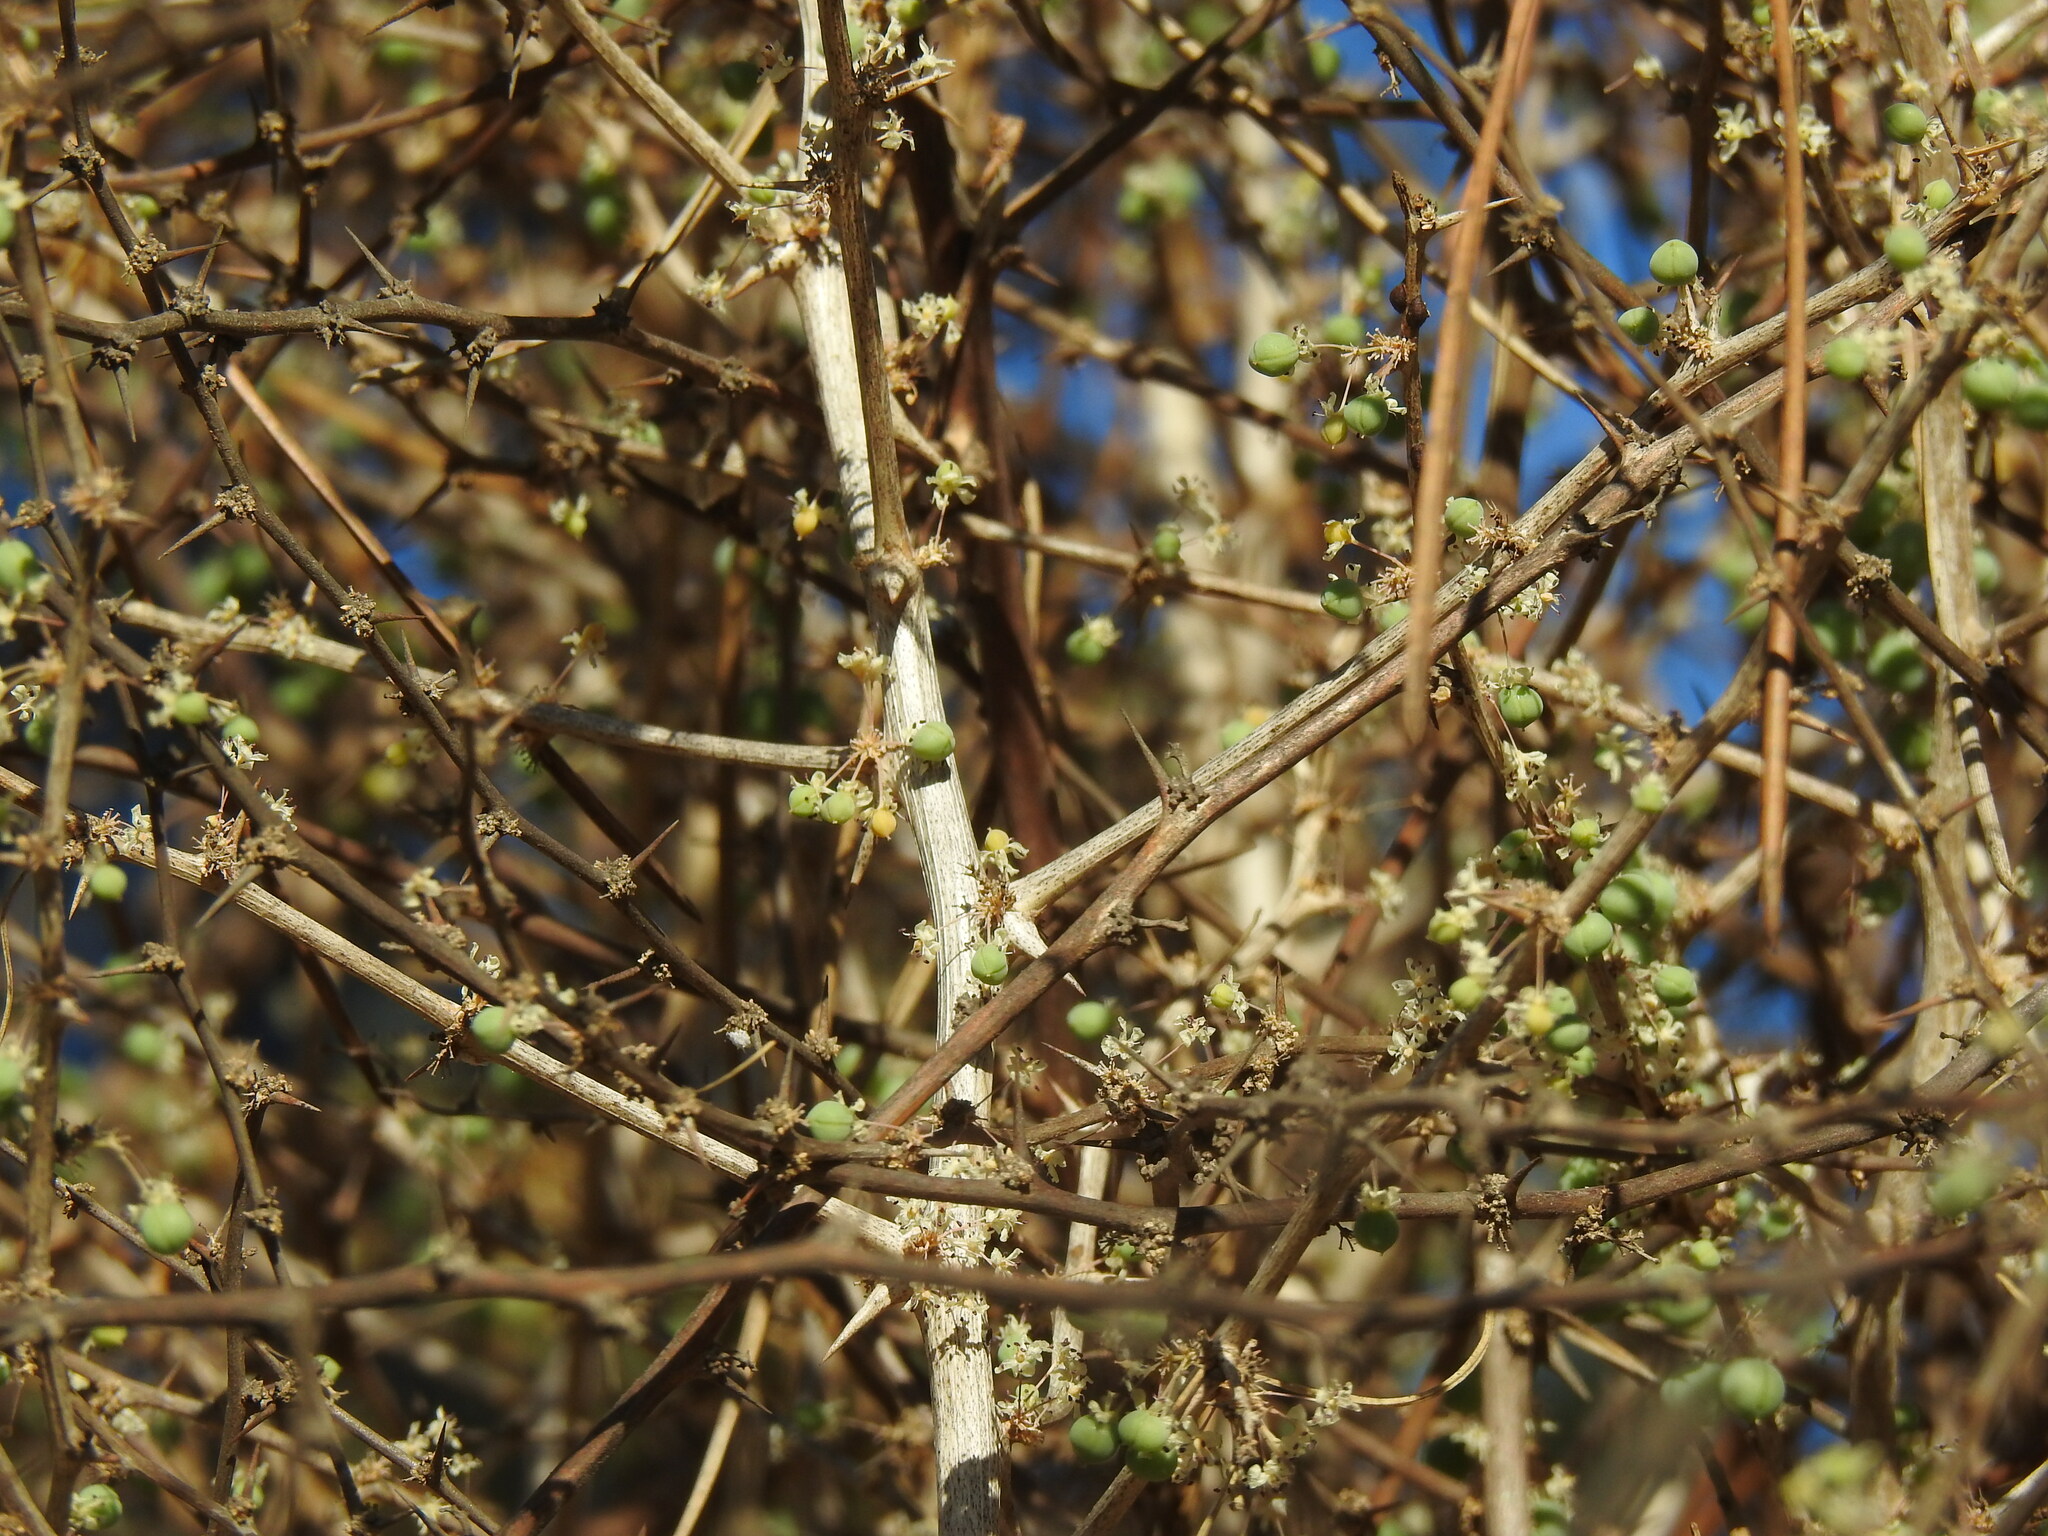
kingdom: Plantae
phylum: Tracheophyta
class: Liliopsida
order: Asparagales
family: Asparagaceae
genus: Asparagus
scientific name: Asparagus albus
